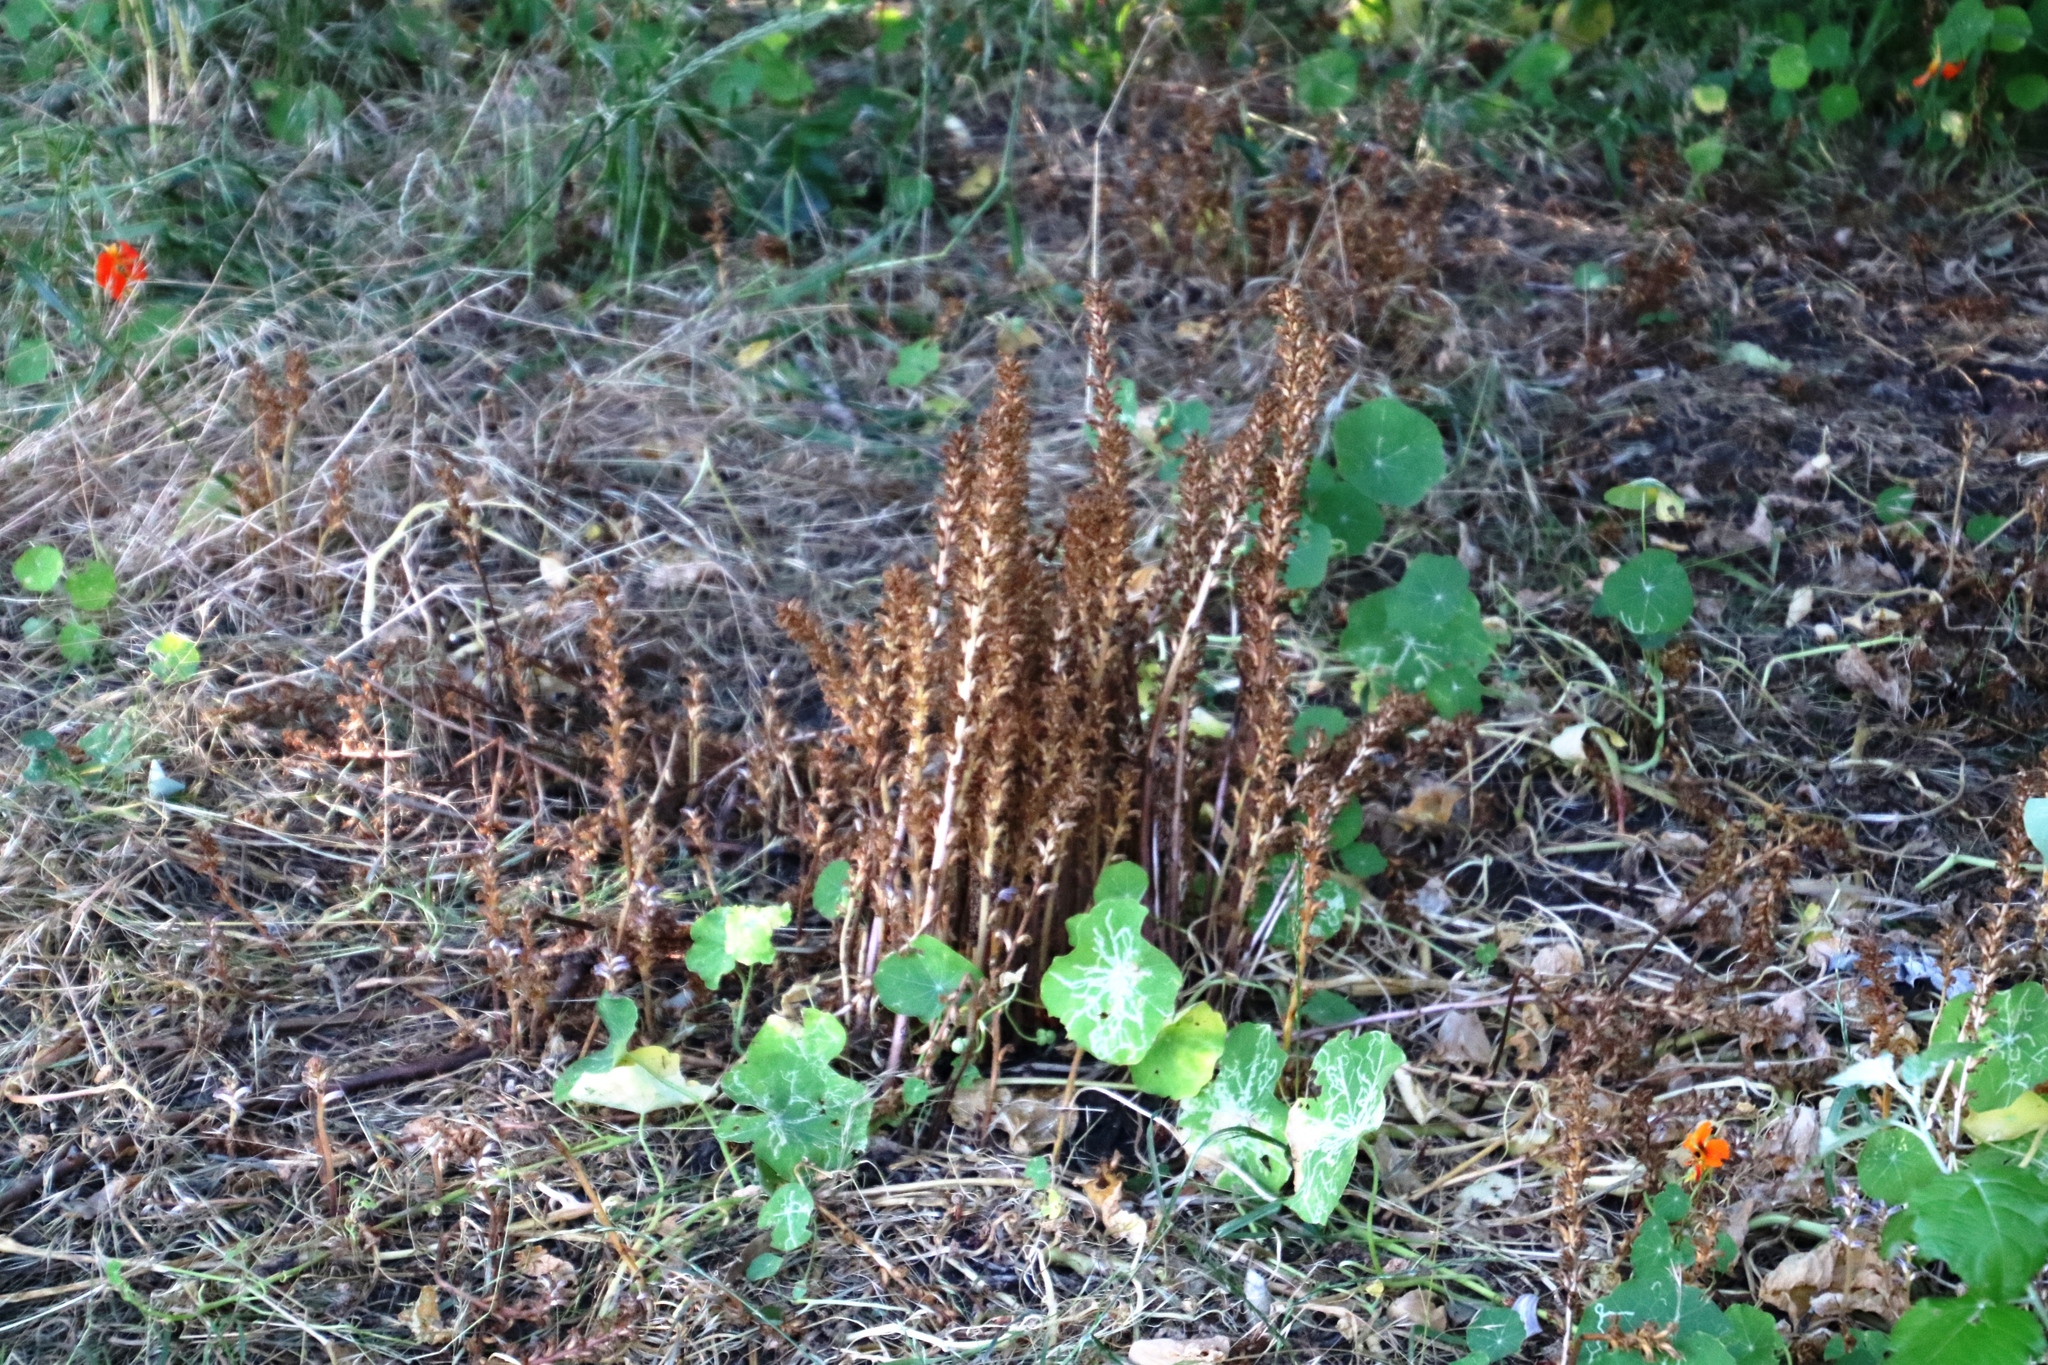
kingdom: Plantae
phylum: Tracheophyta
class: Magnoliopsida
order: Lamiales
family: Orobanchaceae
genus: Orobanche
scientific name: Orobanche minor
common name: Common broomrape
